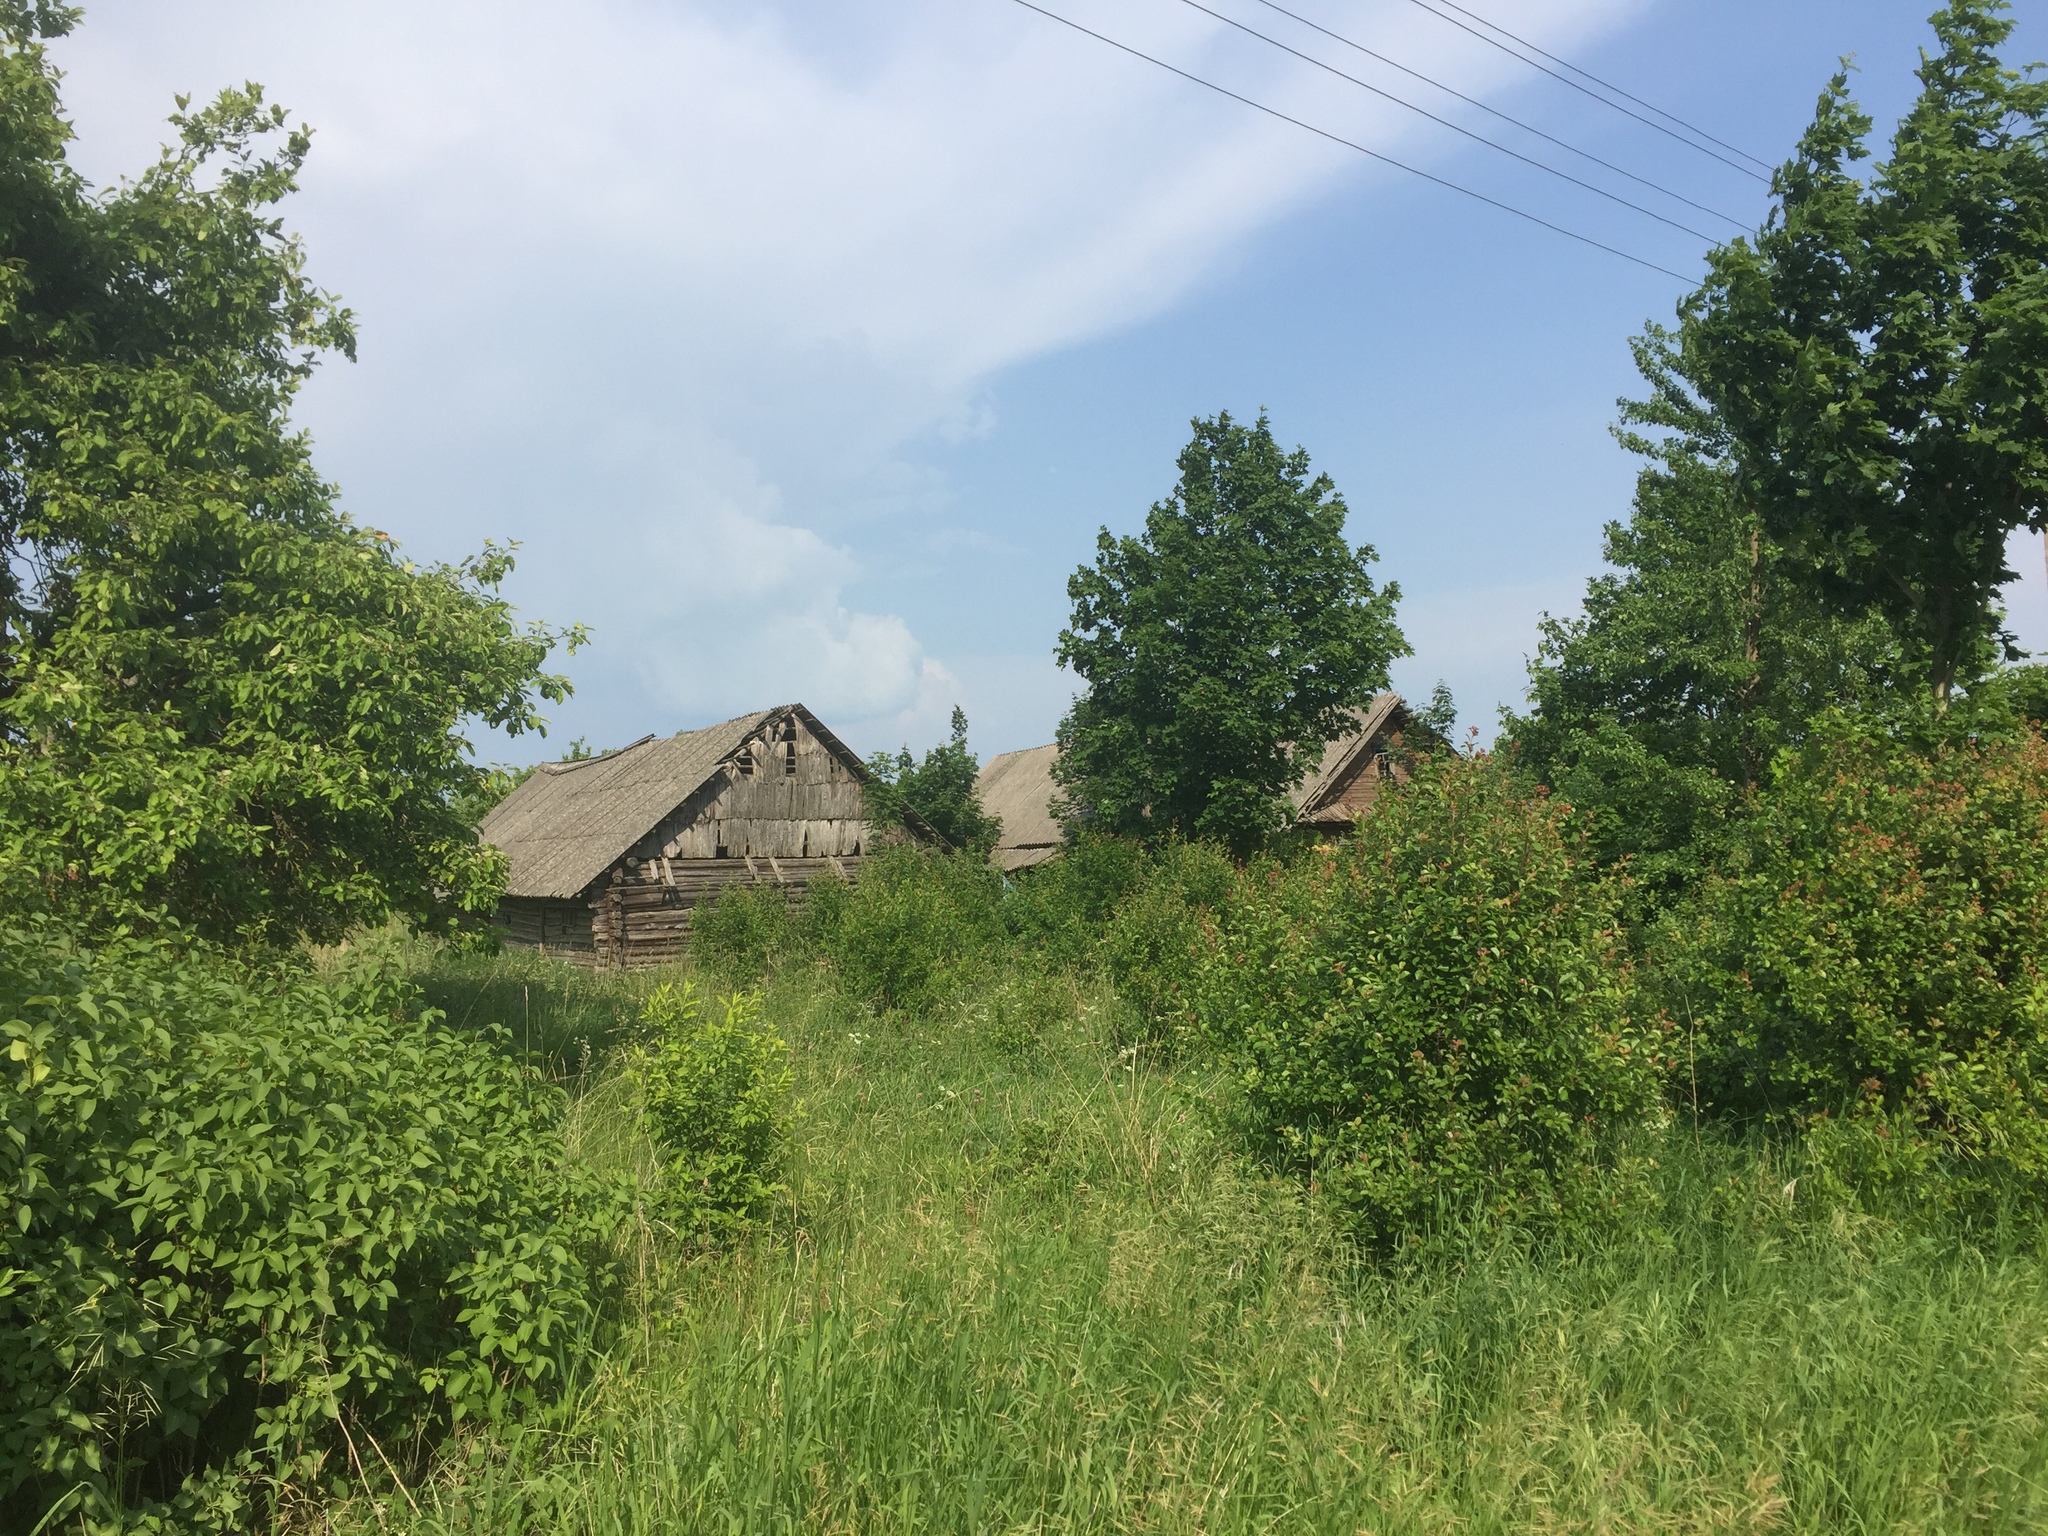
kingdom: Animalia
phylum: Arthropoda
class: Insecta
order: Lepidoptera
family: Lycaenidae
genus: Lycaena
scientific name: Lycaena dispar
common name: Large copper
